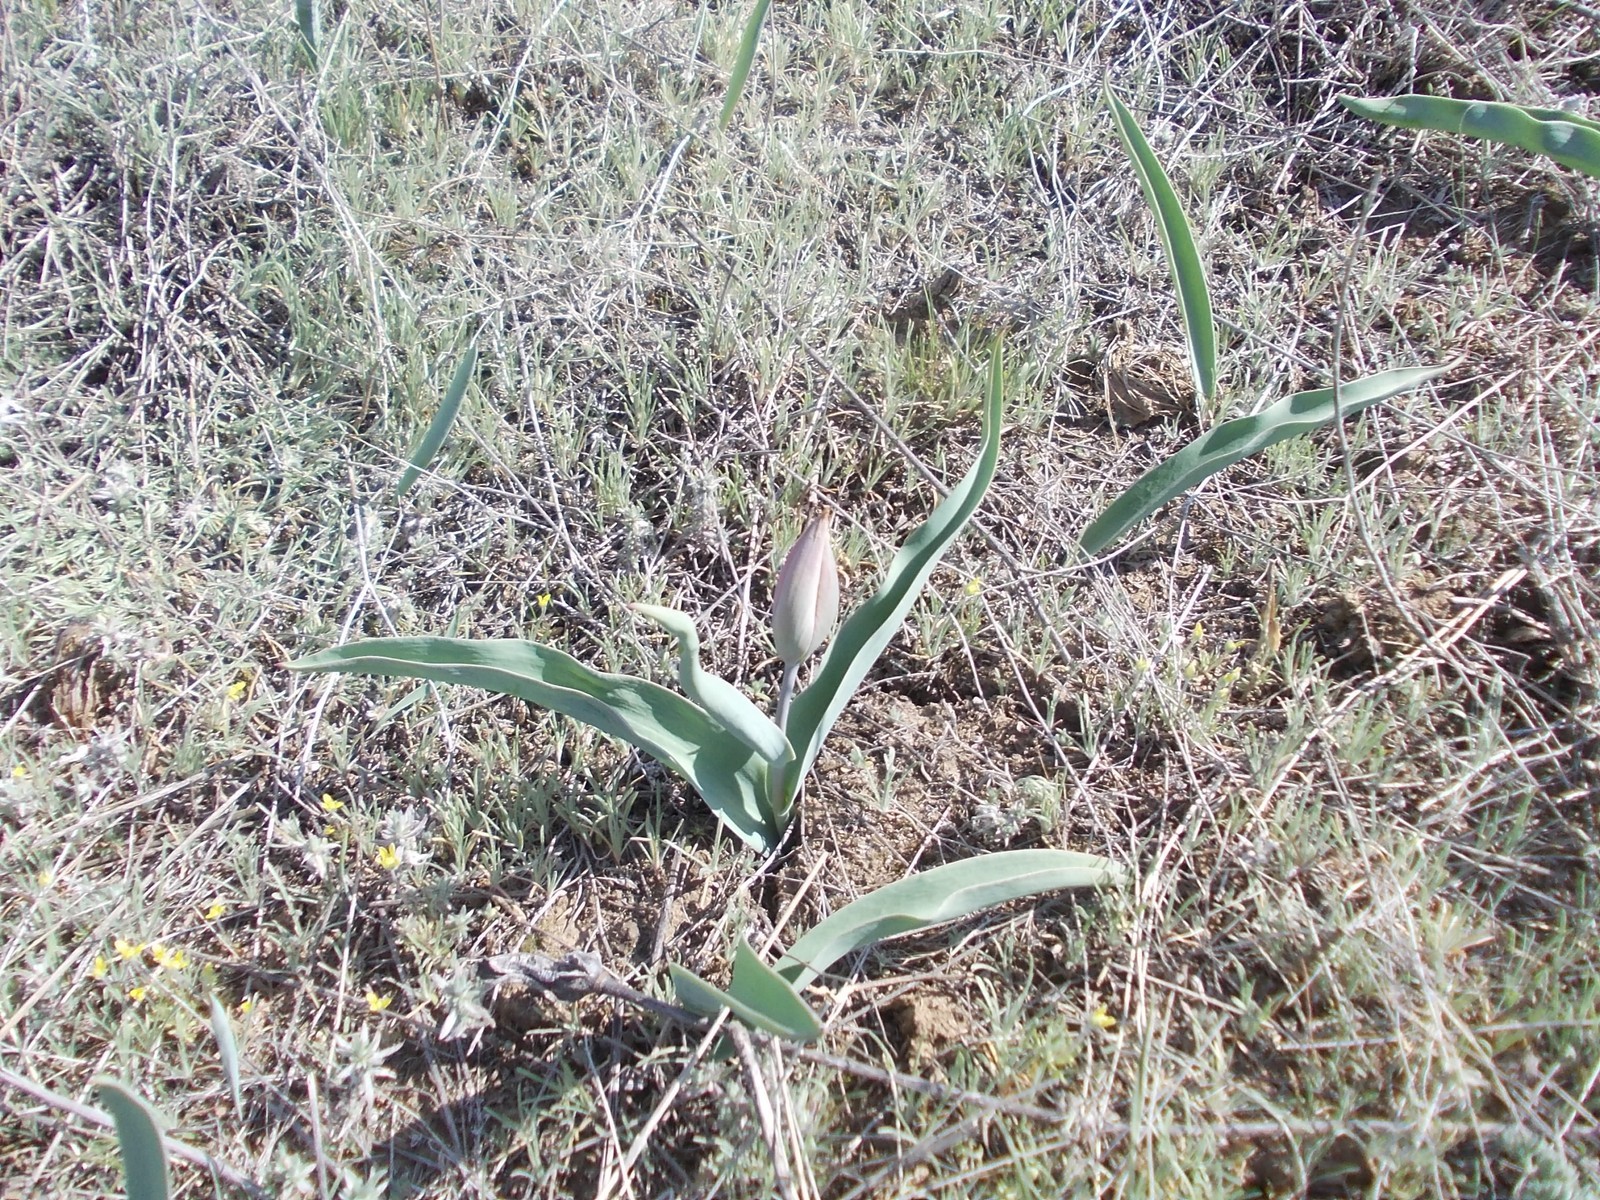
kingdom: Plantae
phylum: Tracheophyta
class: Liliopsida
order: Liliales
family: Liliaceae
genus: Tulipa
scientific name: Tulipa suaveolens
